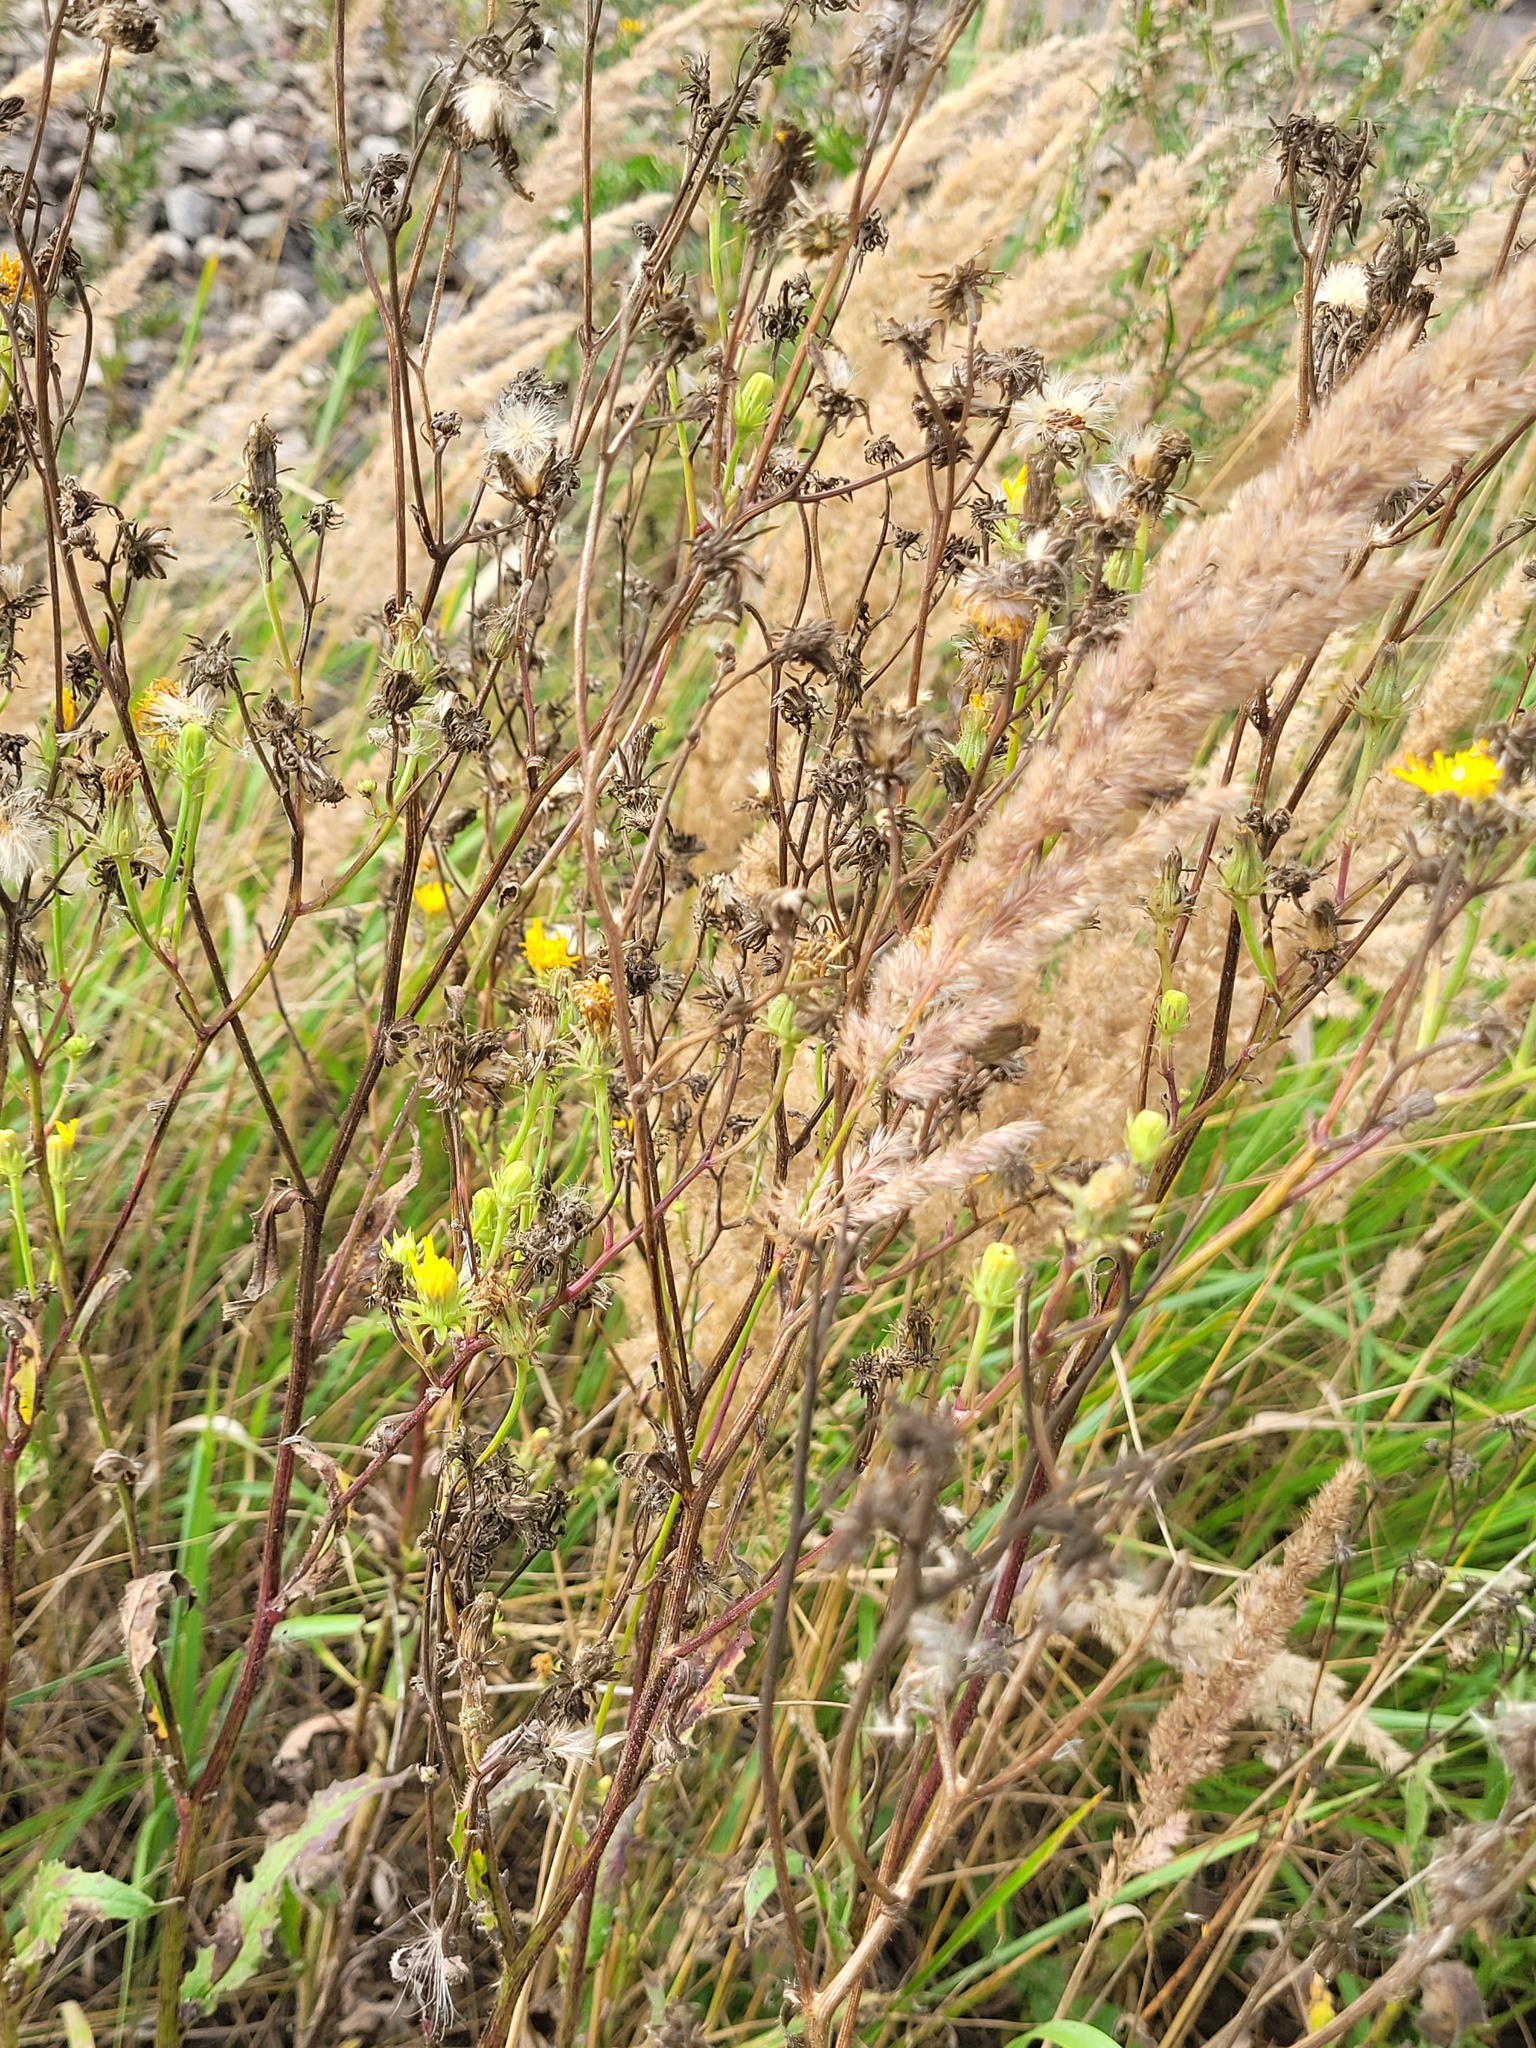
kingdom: Plantae
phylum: Tracheophyta
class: Magnoliopsida
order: Asterales
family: Asteraceae
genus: Picris
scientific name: Picris hieracioides
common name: Hawkweed oxtongue
